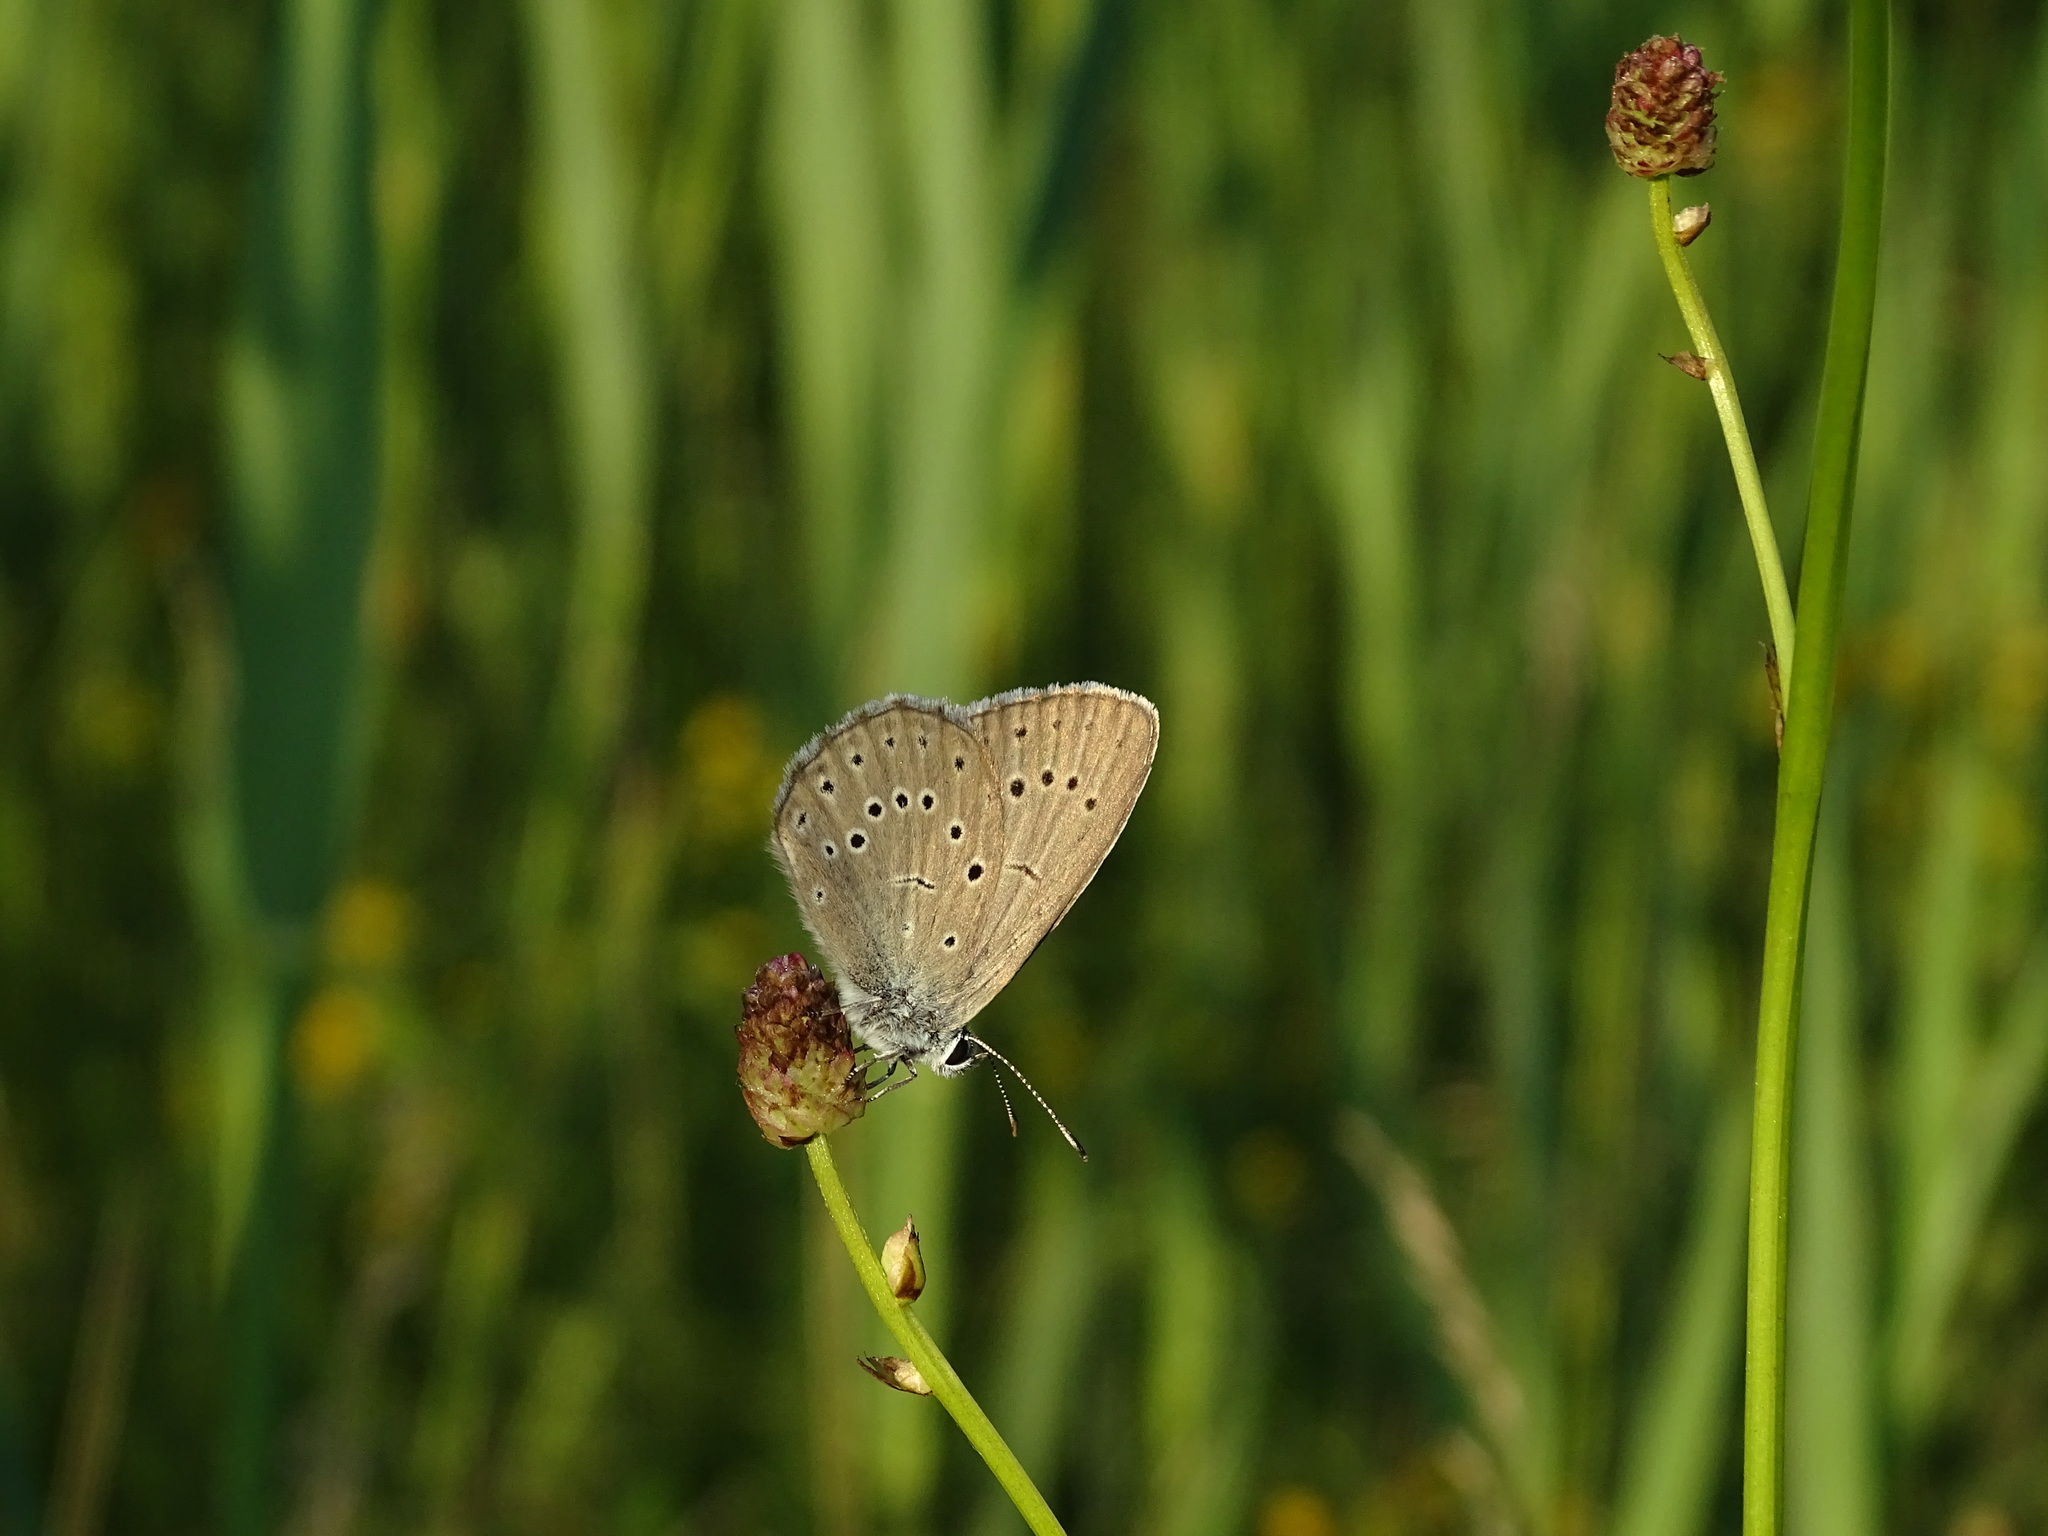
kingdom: Animalia
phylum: Arthropoda
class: Insecta
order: Lepidoptera
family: Lycaenidae
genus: Phengaris
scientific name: Phengaris teleius
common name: Scarce large blue
